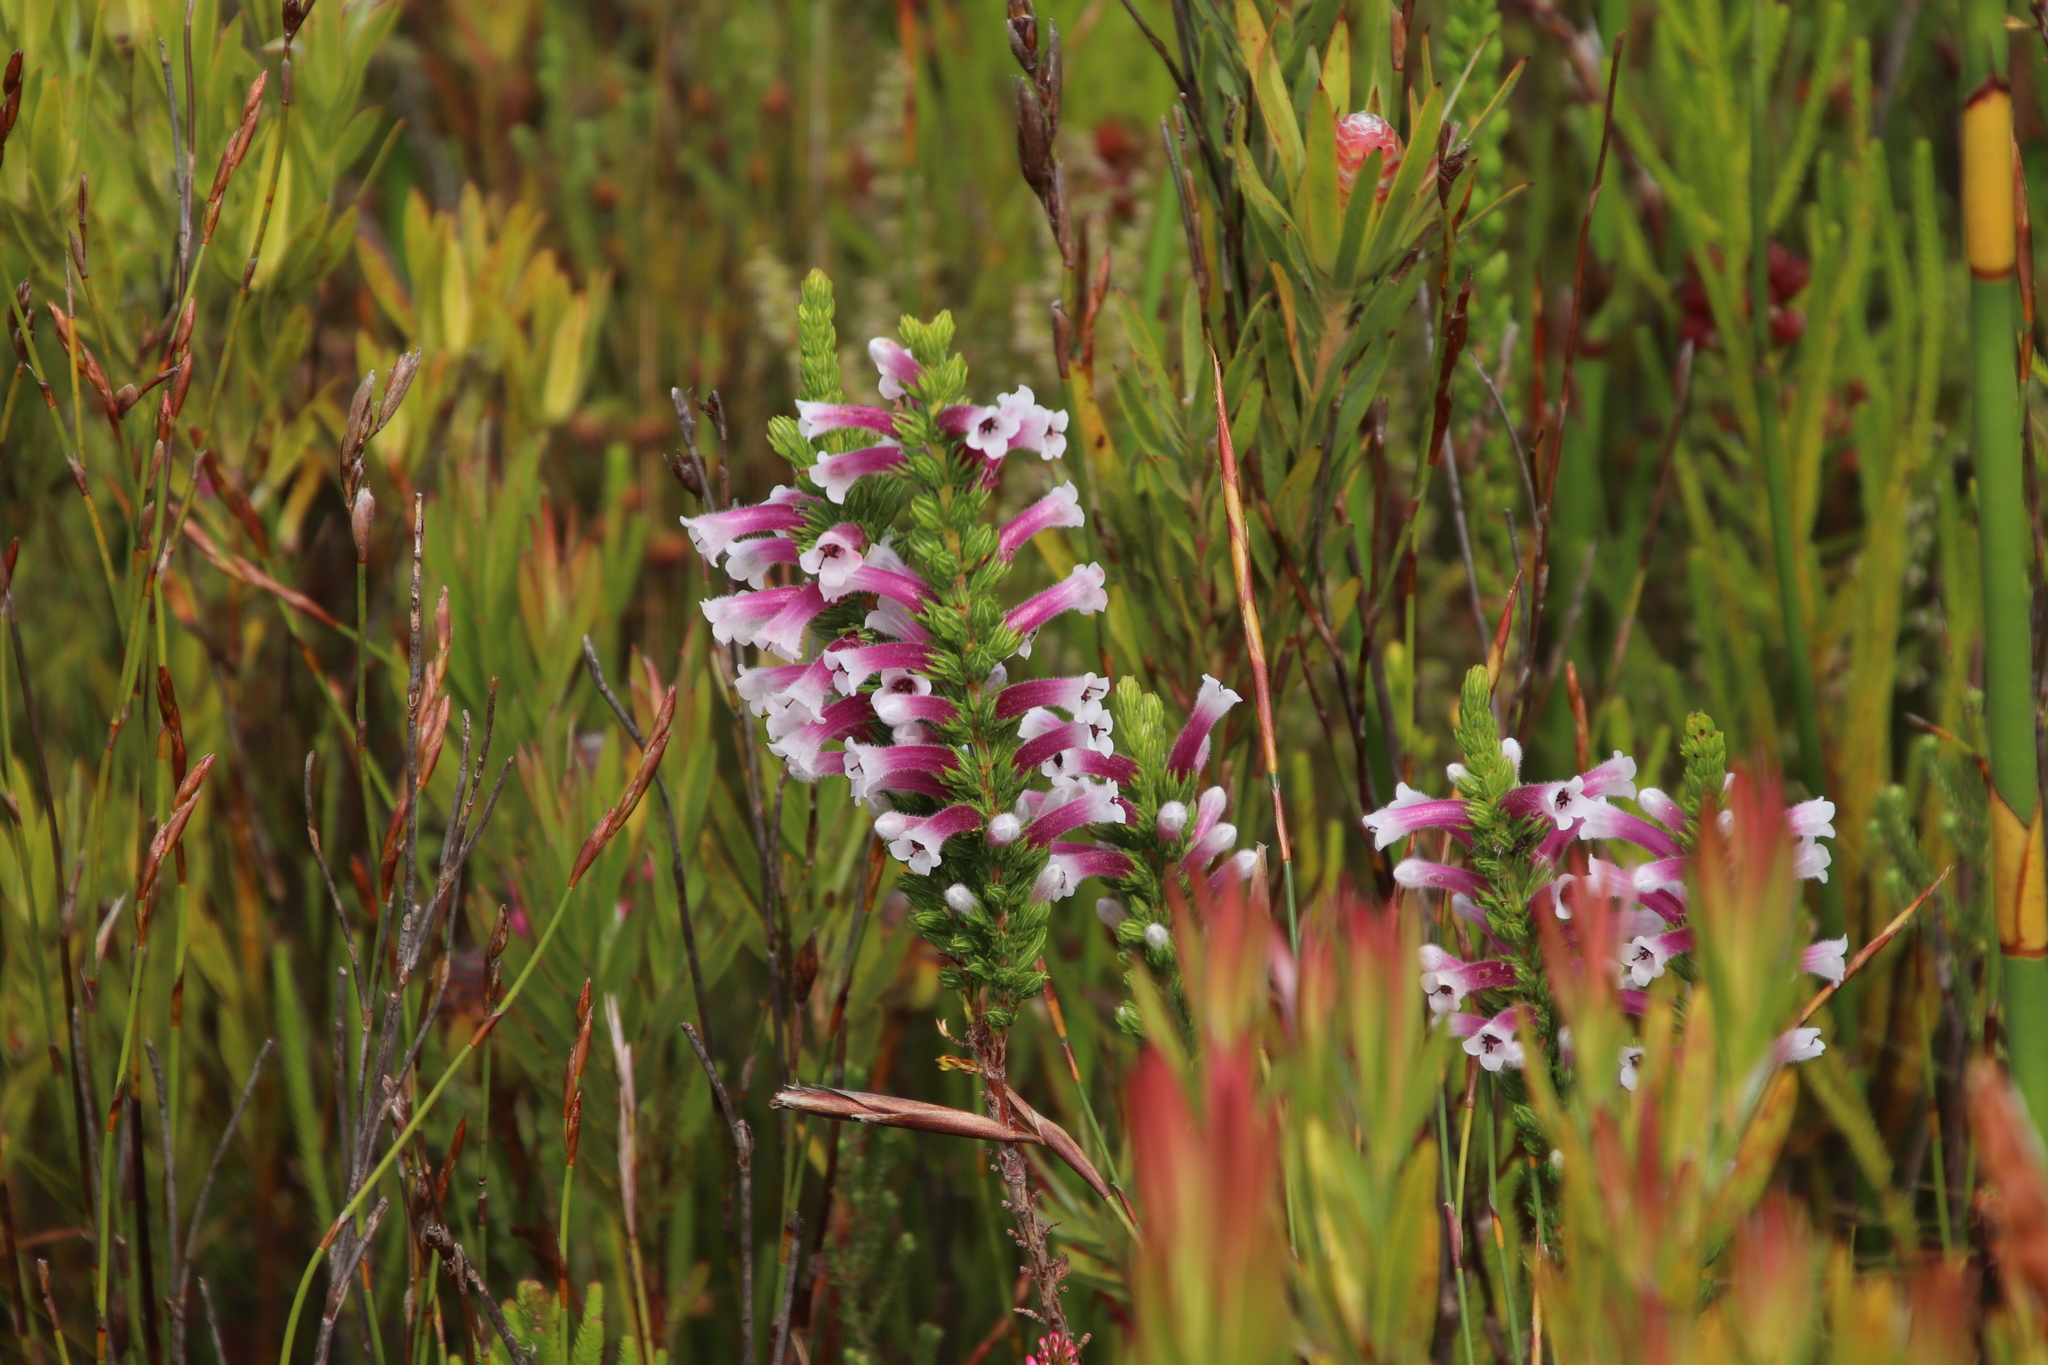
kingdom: Plantae
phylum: Tracheophyta
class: Magnoliopsida
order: Ericales
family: Ericaceae
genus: Erica
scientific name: Erica macowanii
